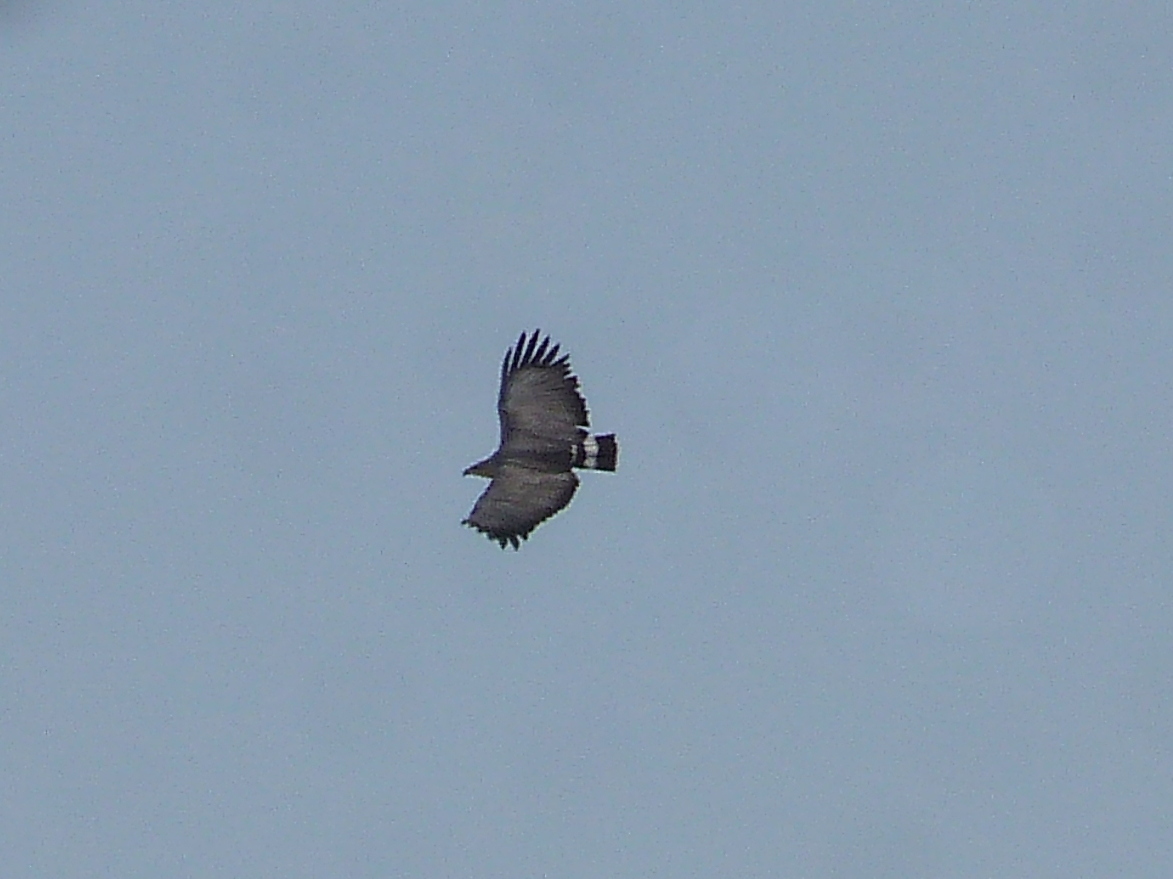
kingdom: Animalia
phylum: Chordata
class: Aves
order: Accipitriformes
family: Accipitridae
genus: Harpyhaliaetus
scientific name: Harpyhaliaetus coronatus
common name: Crowned solitary eagle
